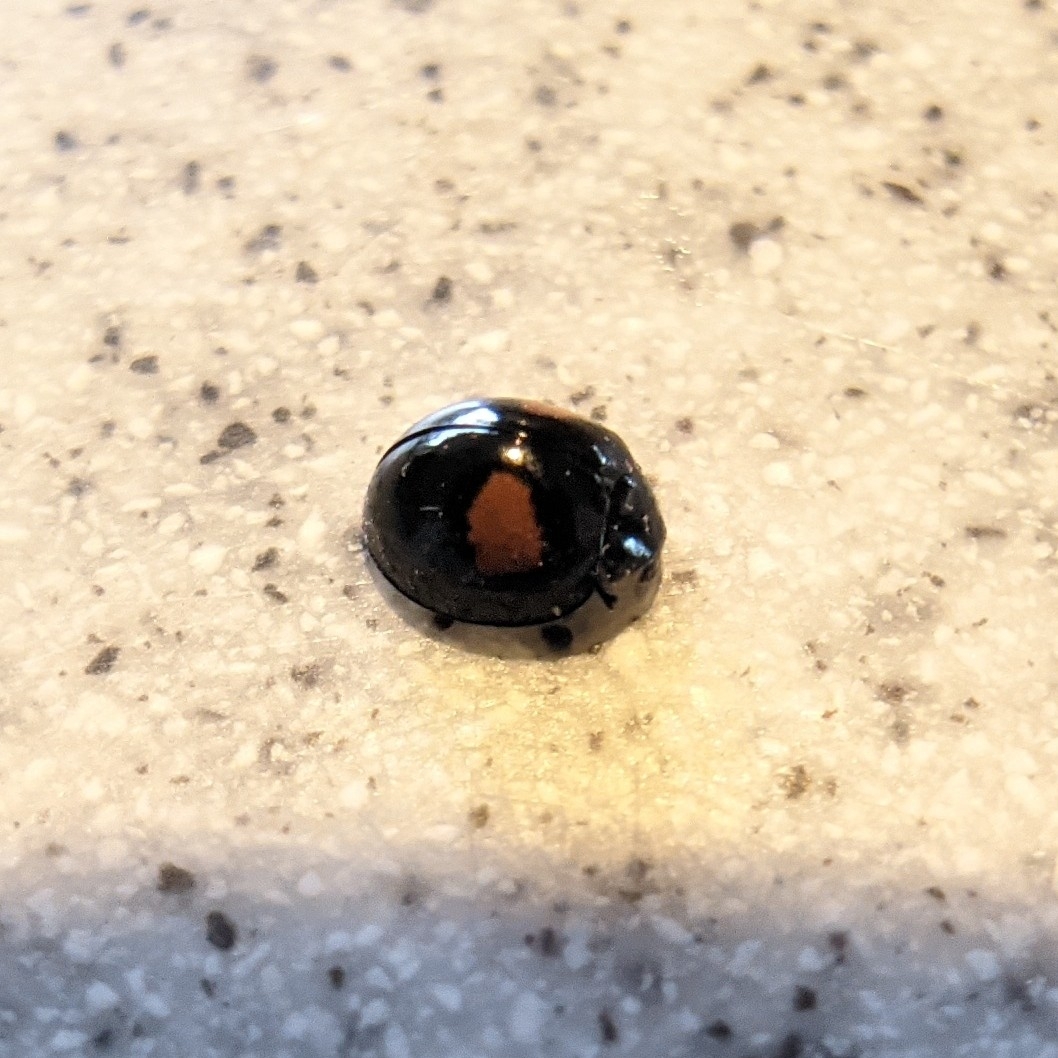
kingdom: Animalia
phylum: Arthropoda
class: Insecta
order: Coleoptera
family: Coccinellidae
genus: Olla
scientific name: Olla v-nigrum
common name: Ashy gray lady beetle
